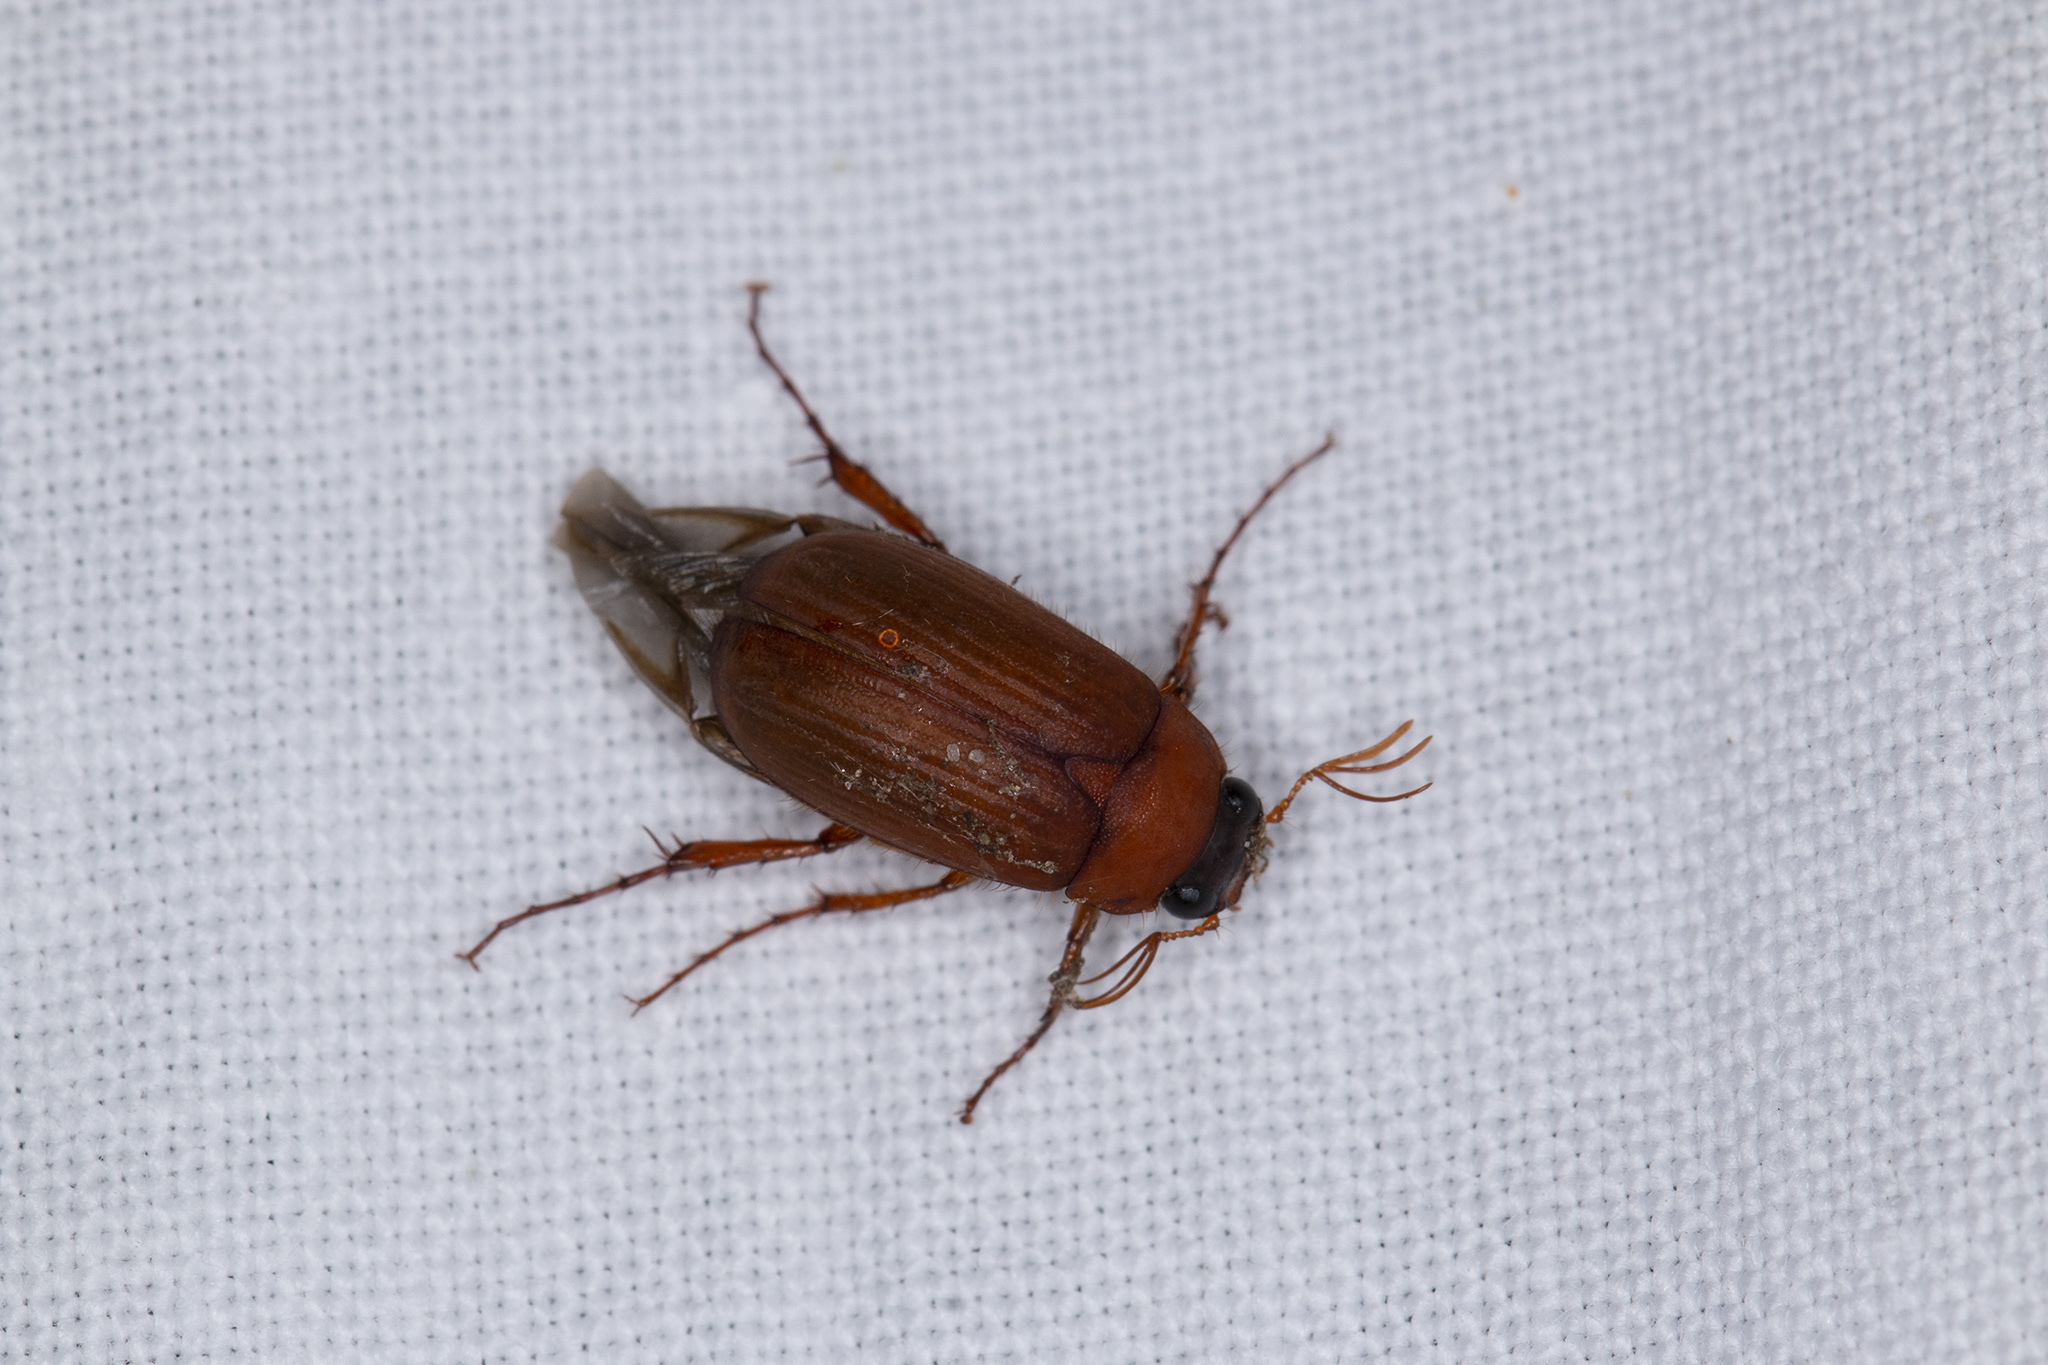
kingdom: Animalia
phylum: Arthropoda
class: Insecta
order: Coleoptera
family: Scarabaeidae
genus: Serica
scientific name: Serica brunnea
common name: Brown chafer
